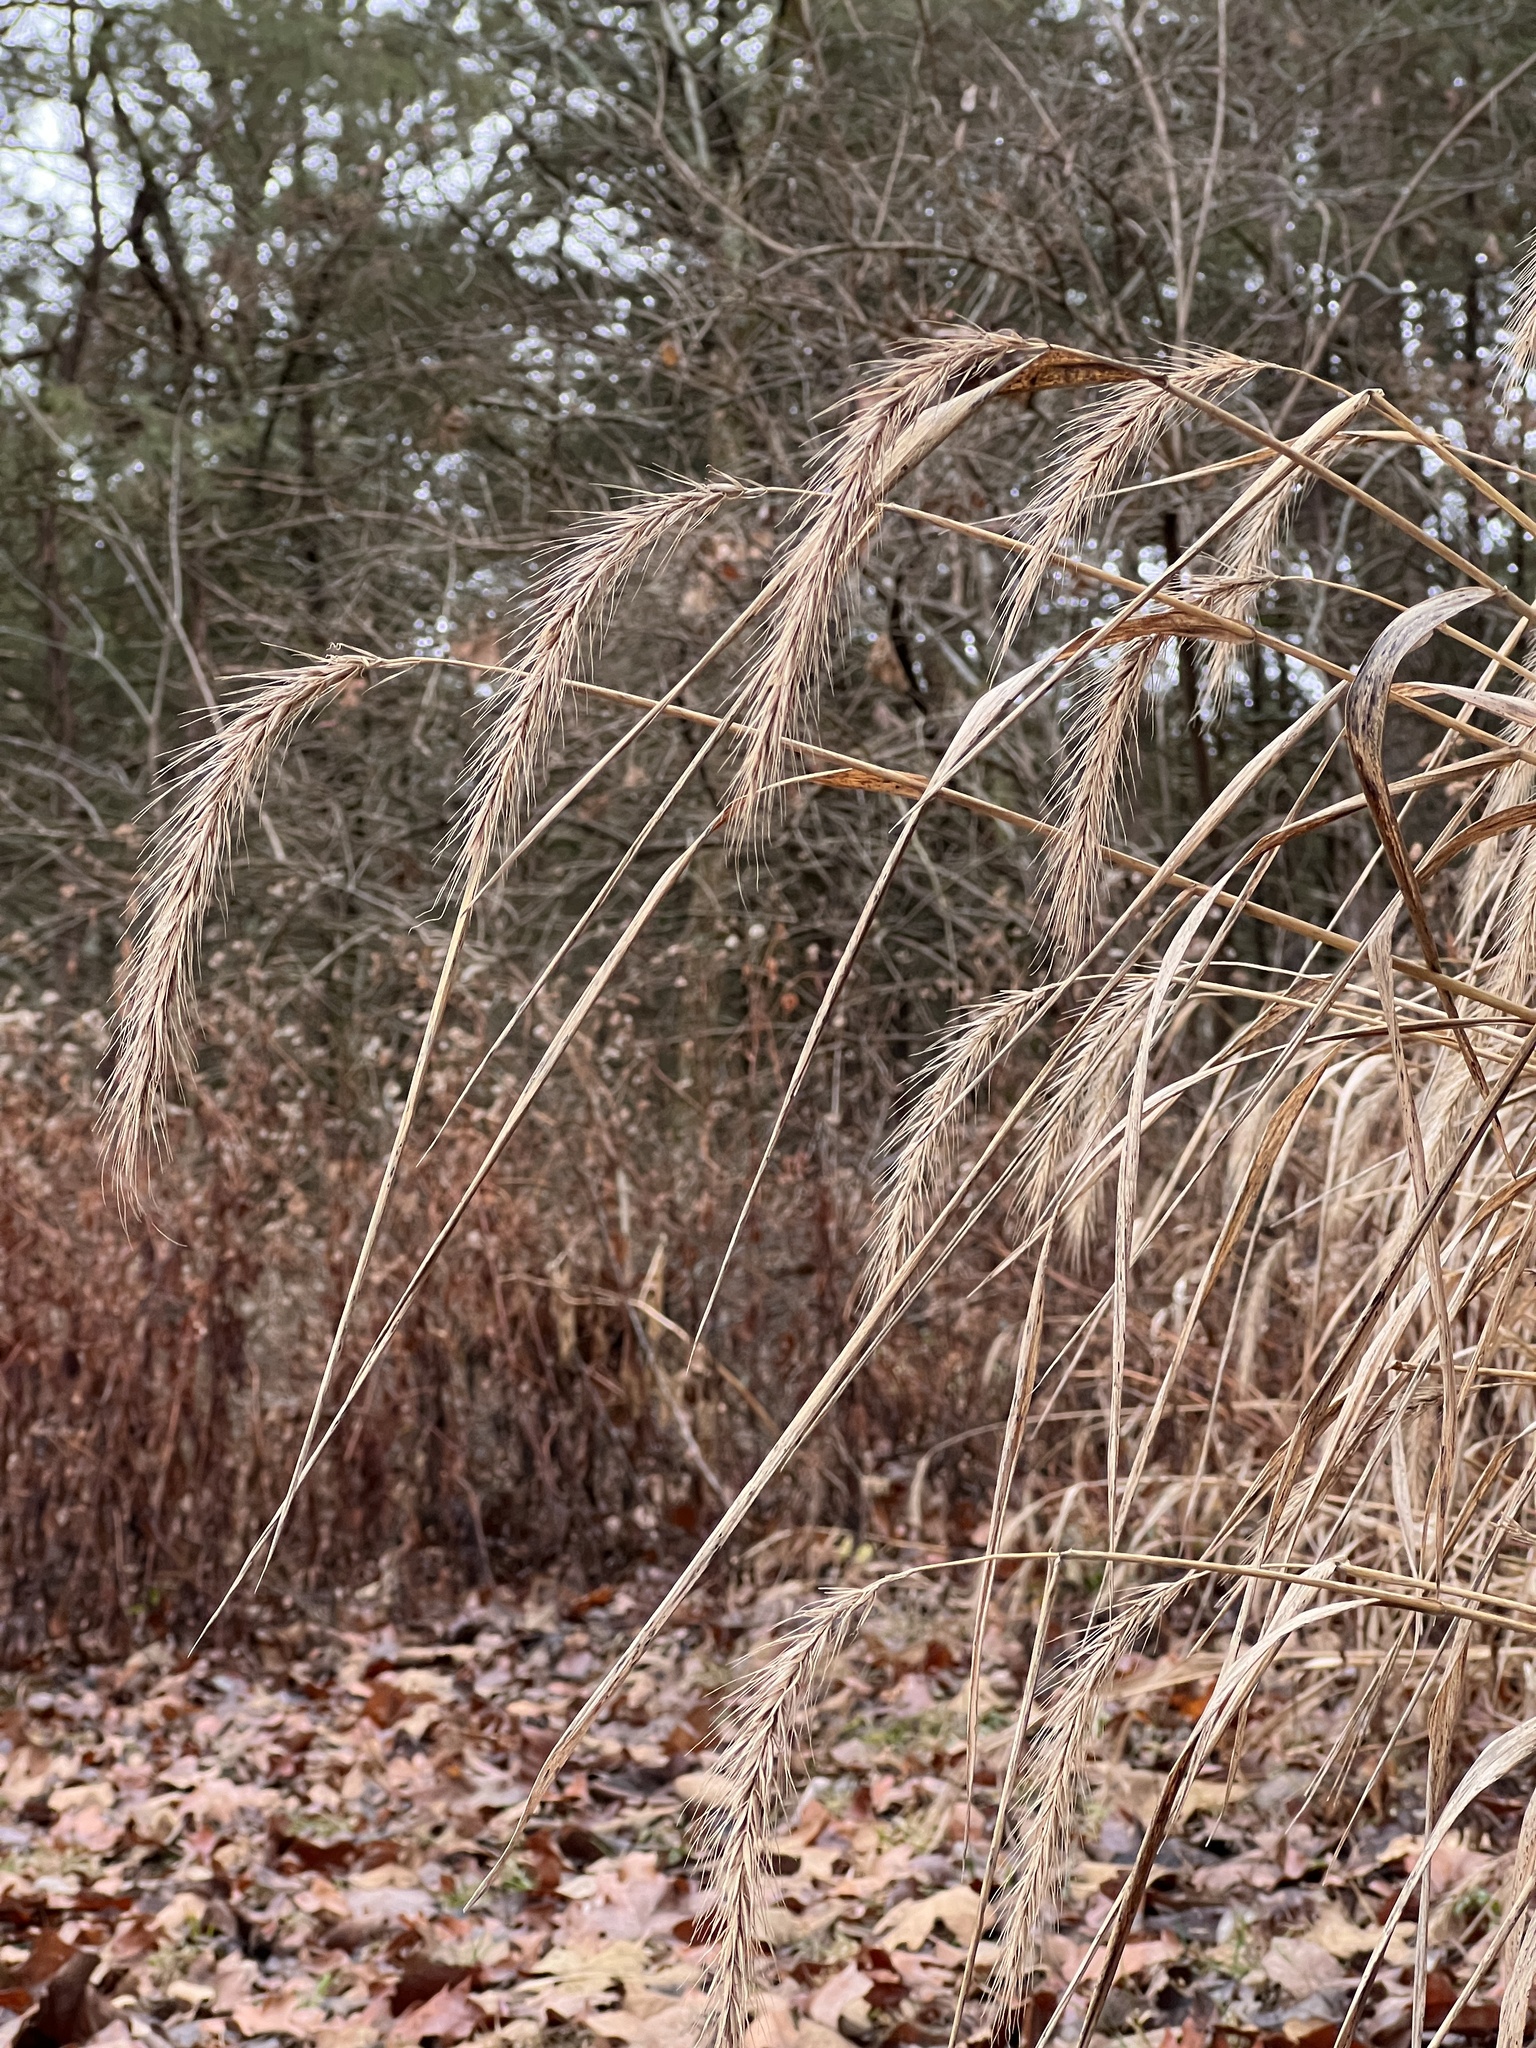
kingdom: Plantae
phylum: Tracheophyta
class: Liliopsida
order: Poales
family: Poaceae
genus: Elymus
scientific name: Elymus riparius
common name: Eastern riverbank wild rye
